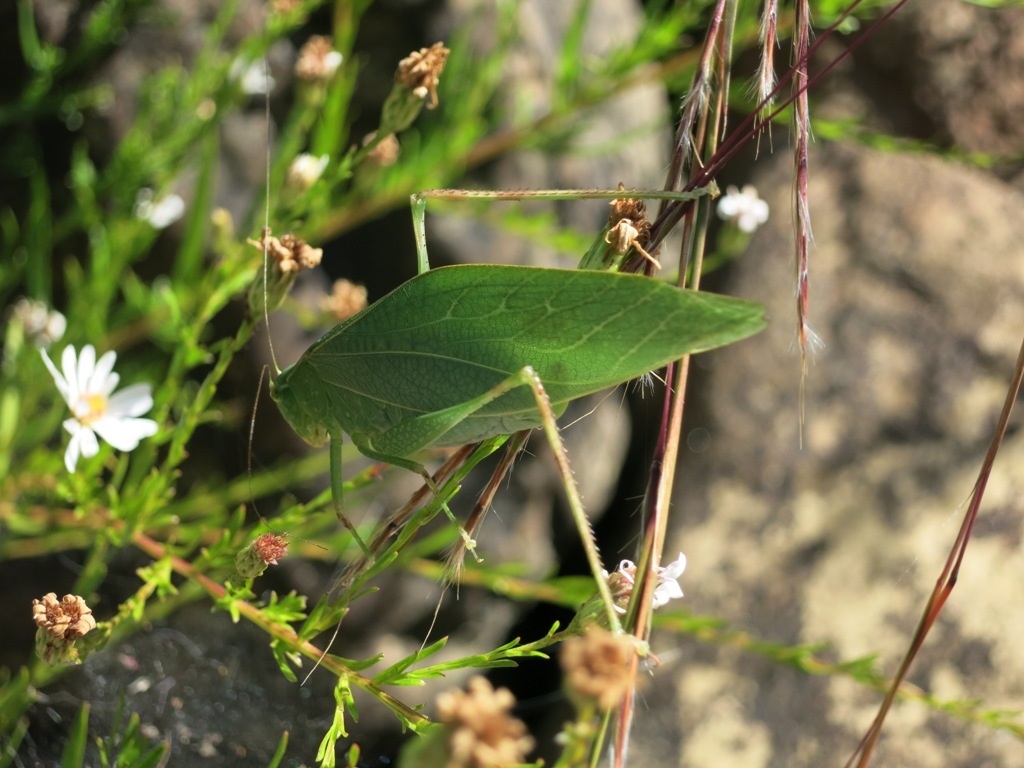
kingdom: Animalia
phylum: Arthropoda
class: Insecta
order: Orthoptera
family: Tettigoniidae
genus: Microcentrum
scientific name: Microcentrum retinerve
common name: Angular-winged katydid
